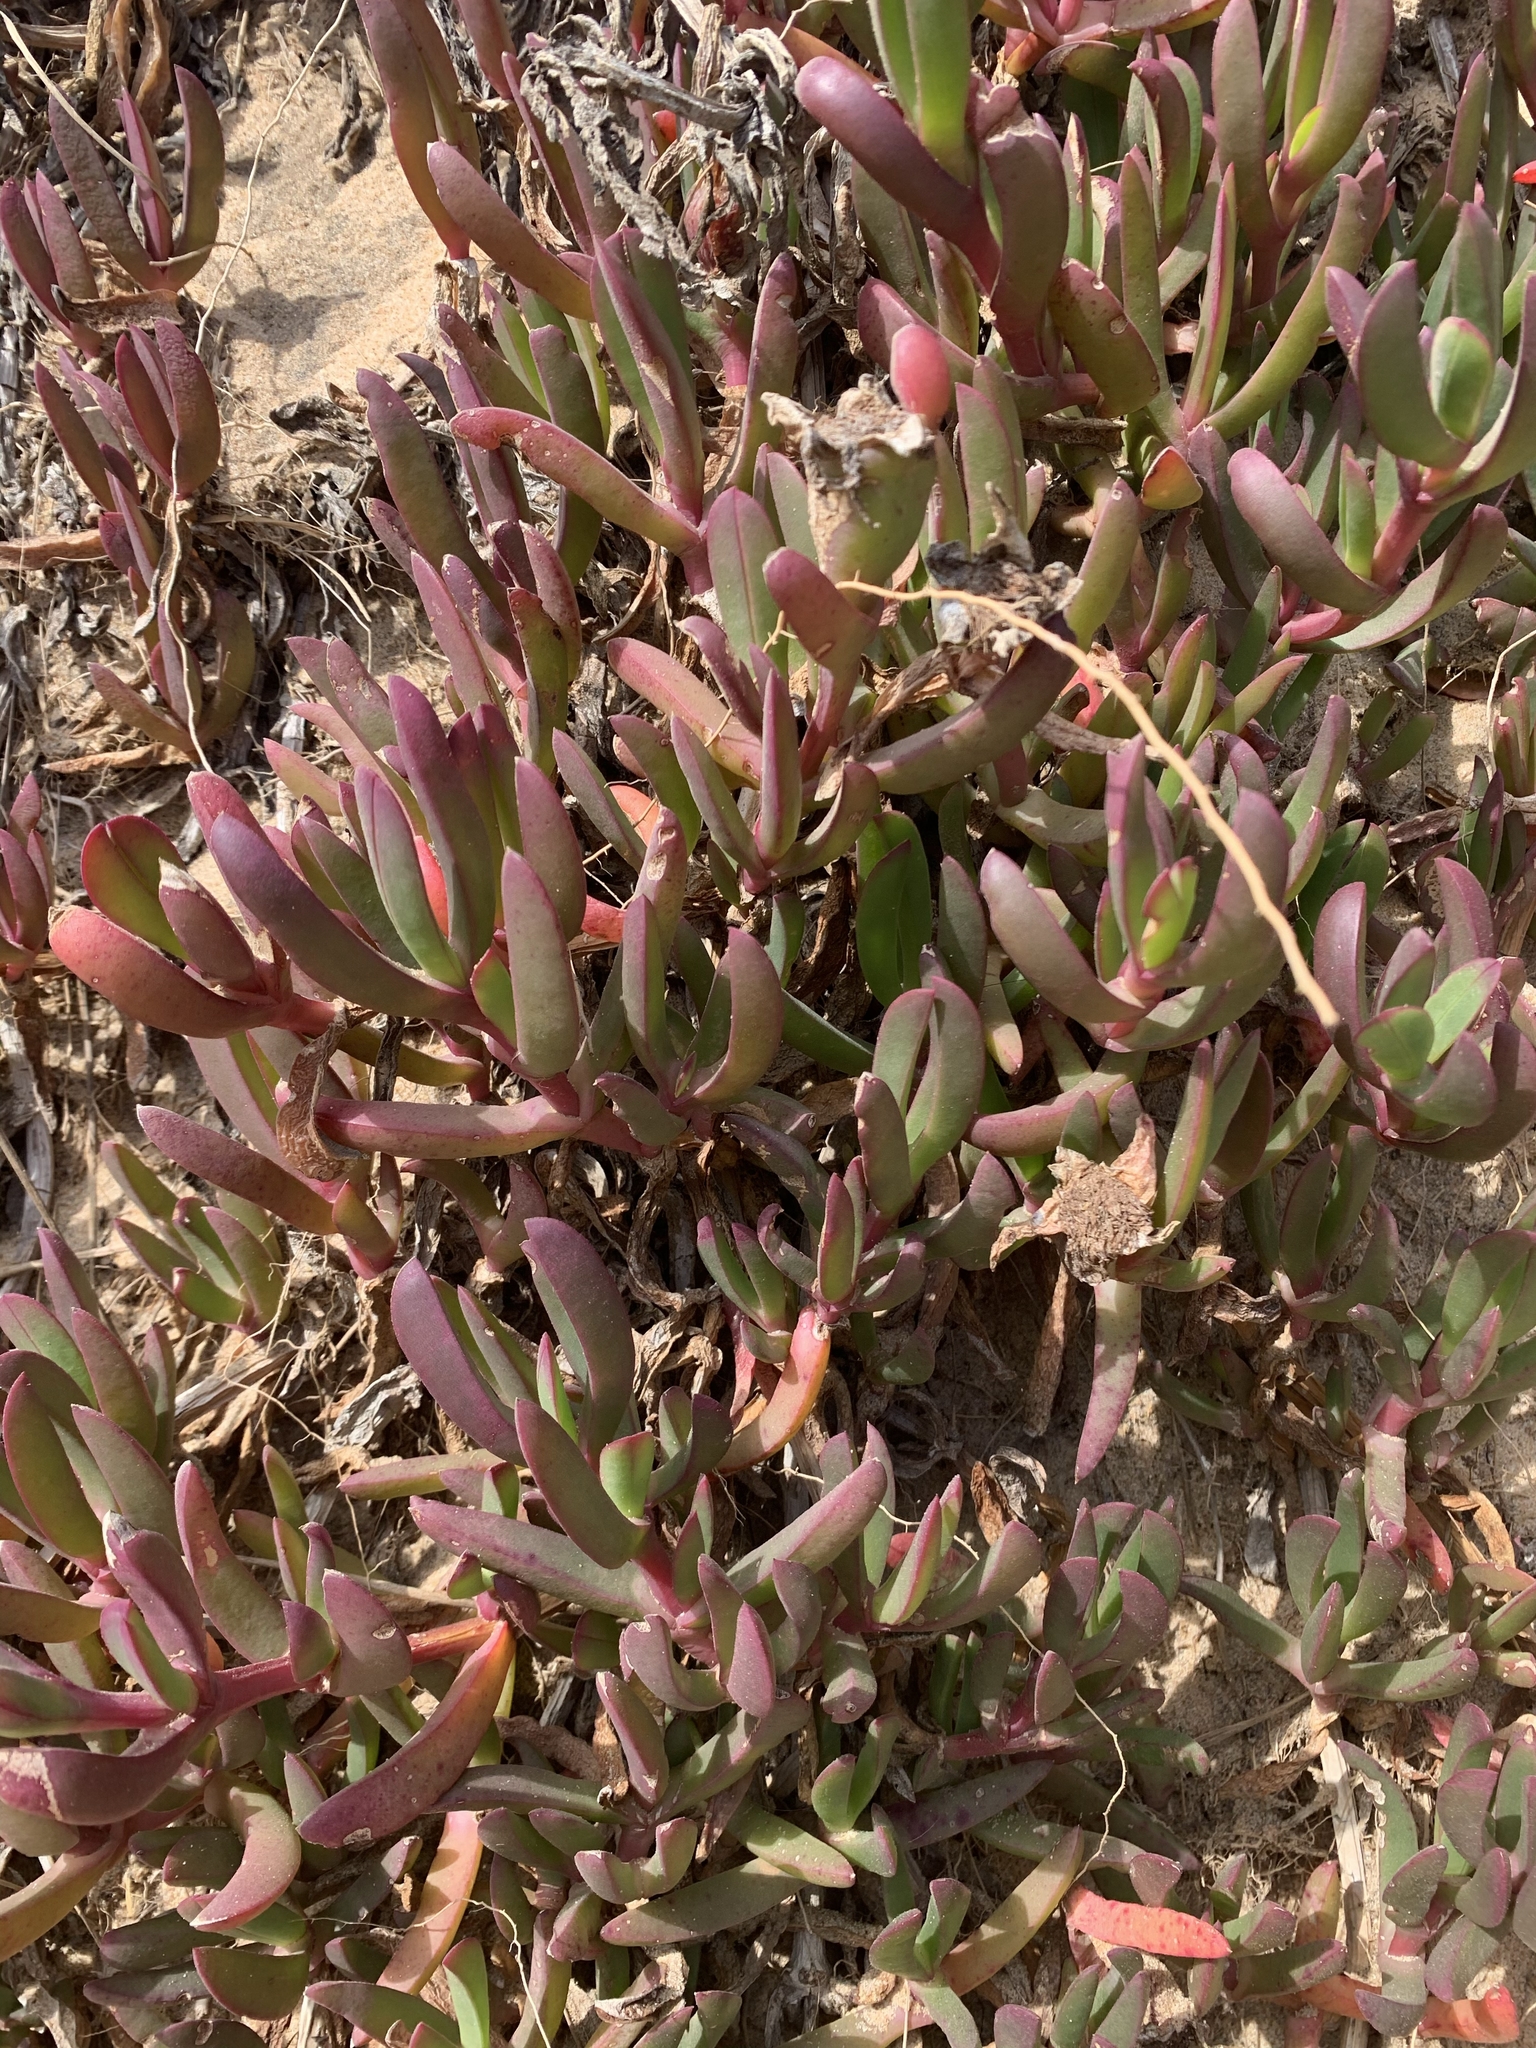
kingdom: Plantae
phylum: Tracheophyta
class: Magnoliopsida
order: Caryophyllales
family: Aizoaceae
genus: Carpobrotus
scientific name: Carpobrotus rossii
